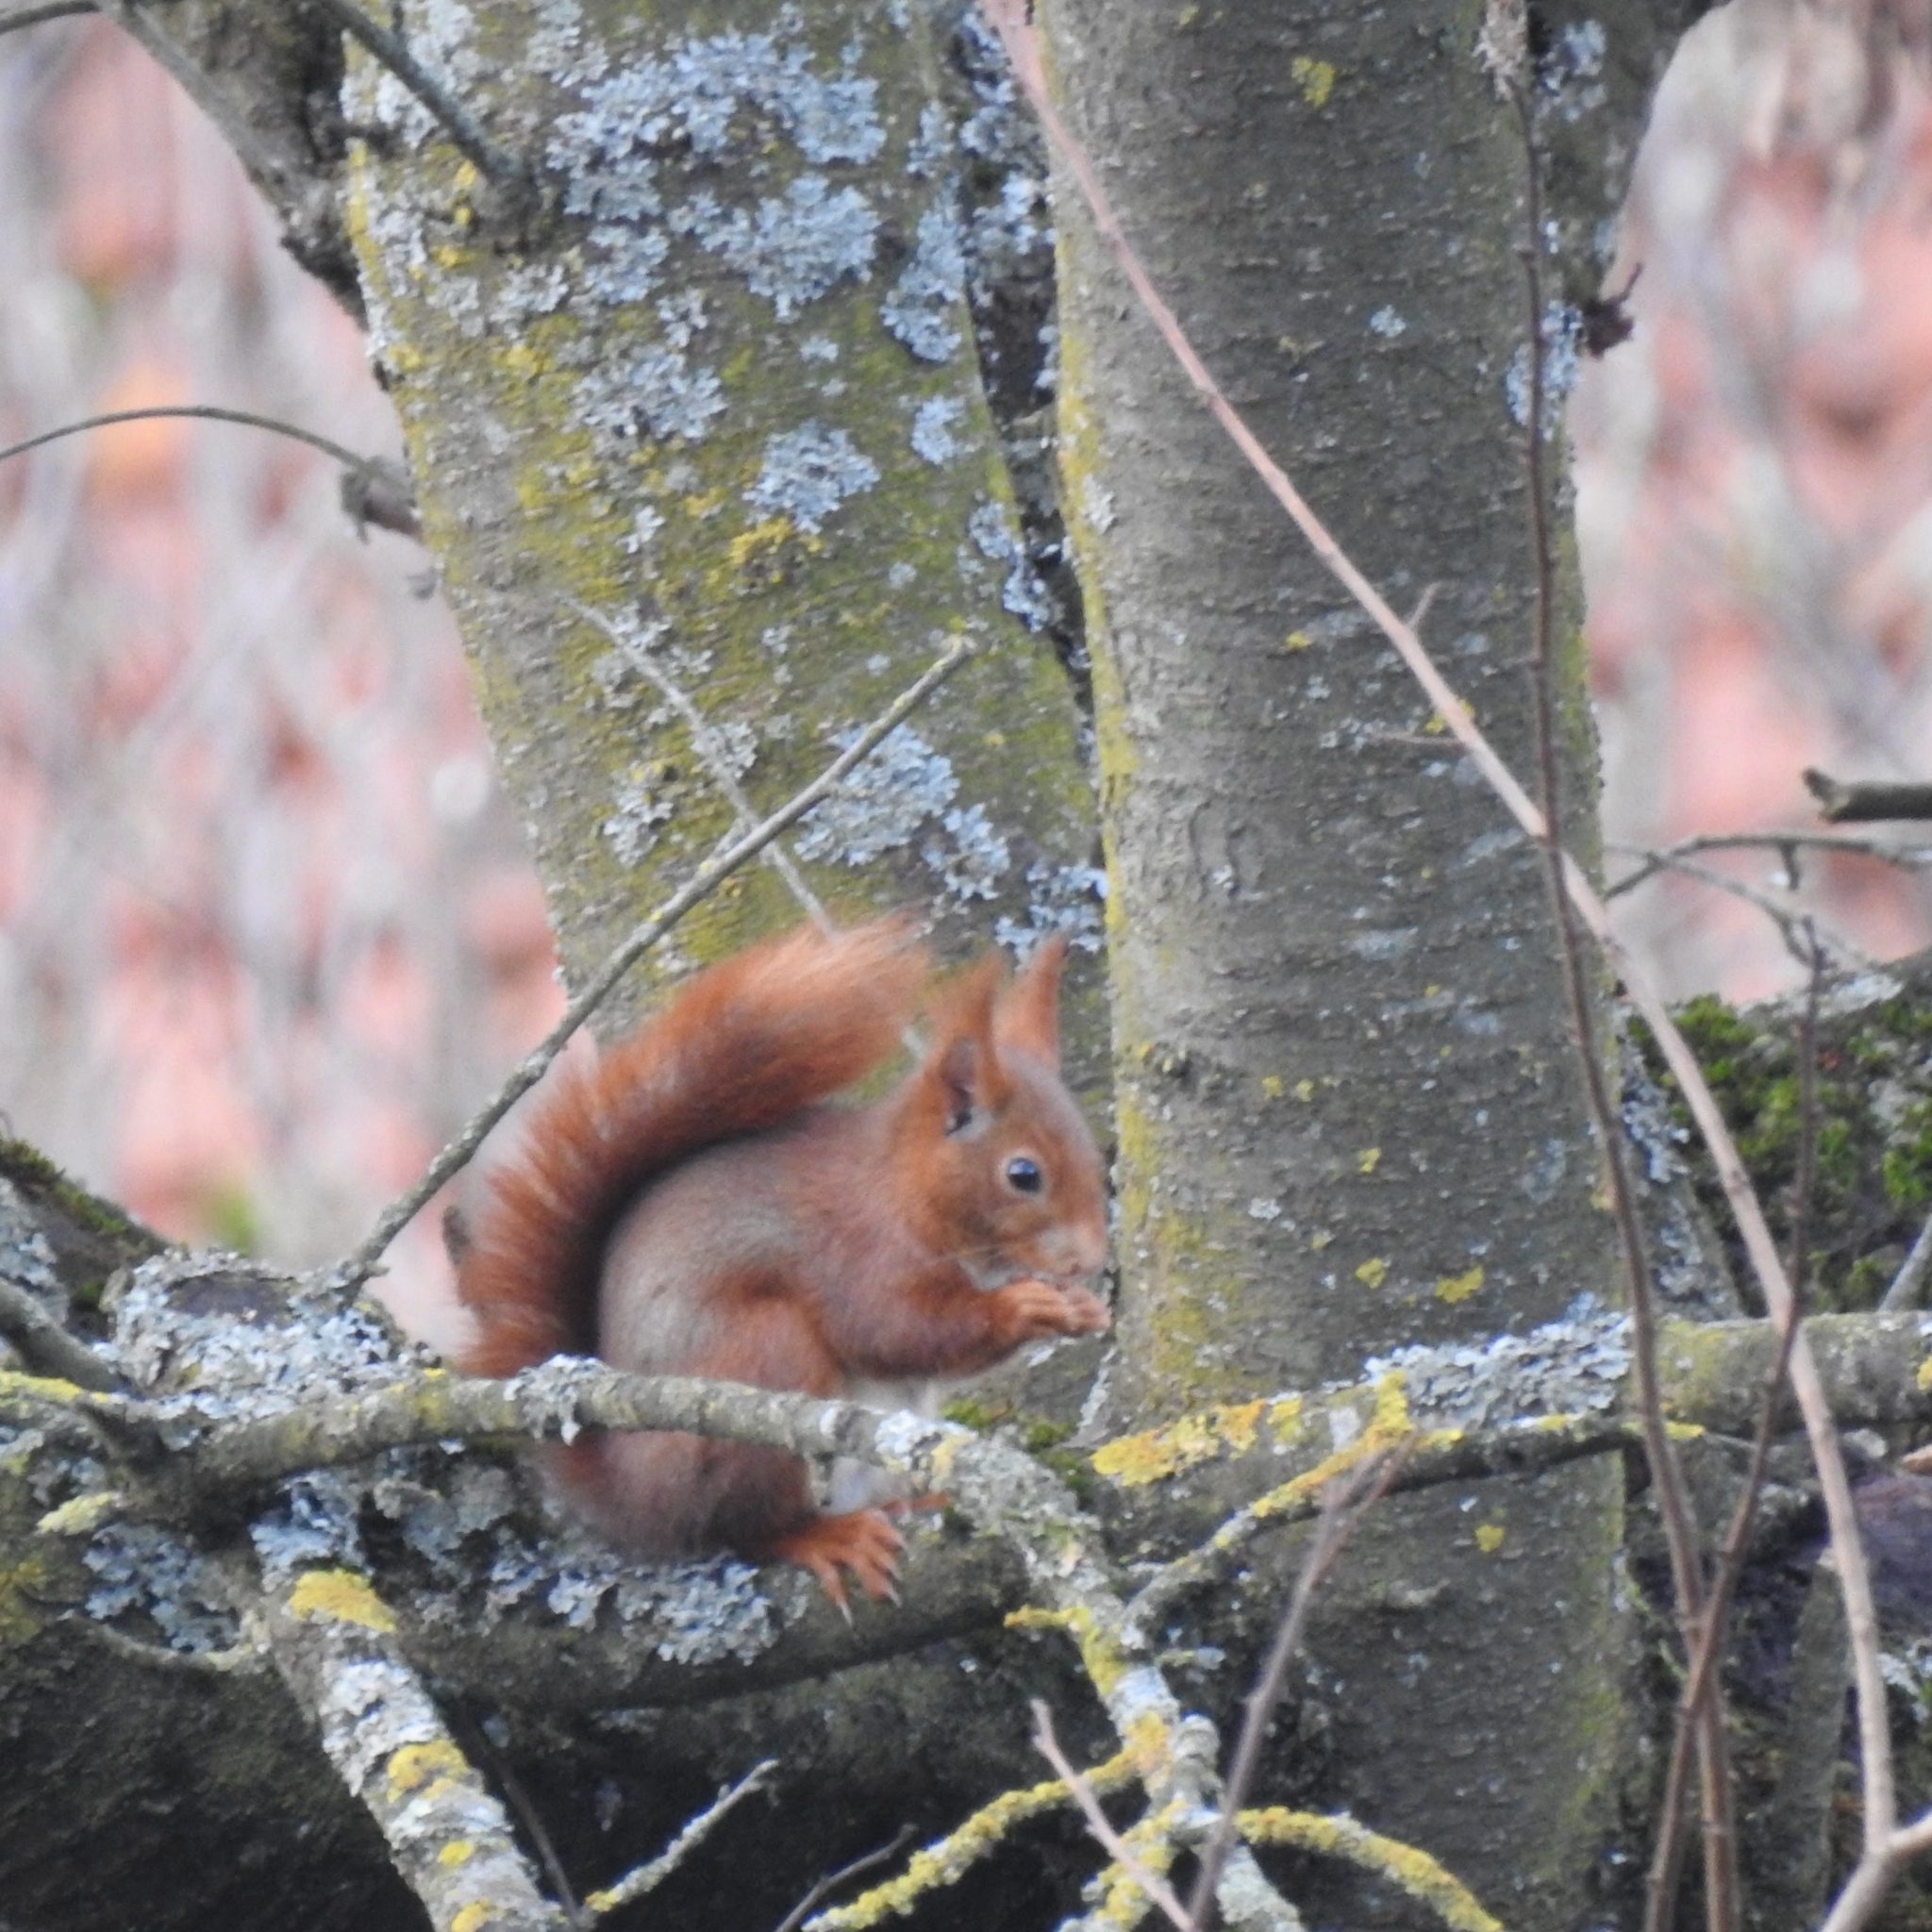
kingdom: Animalia
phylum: Chordata
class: Mammalia
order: Rodentia
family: Sciuridae
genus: Sciurus
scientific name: Sciurus vulgaris
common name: Eurasian red squirrel
